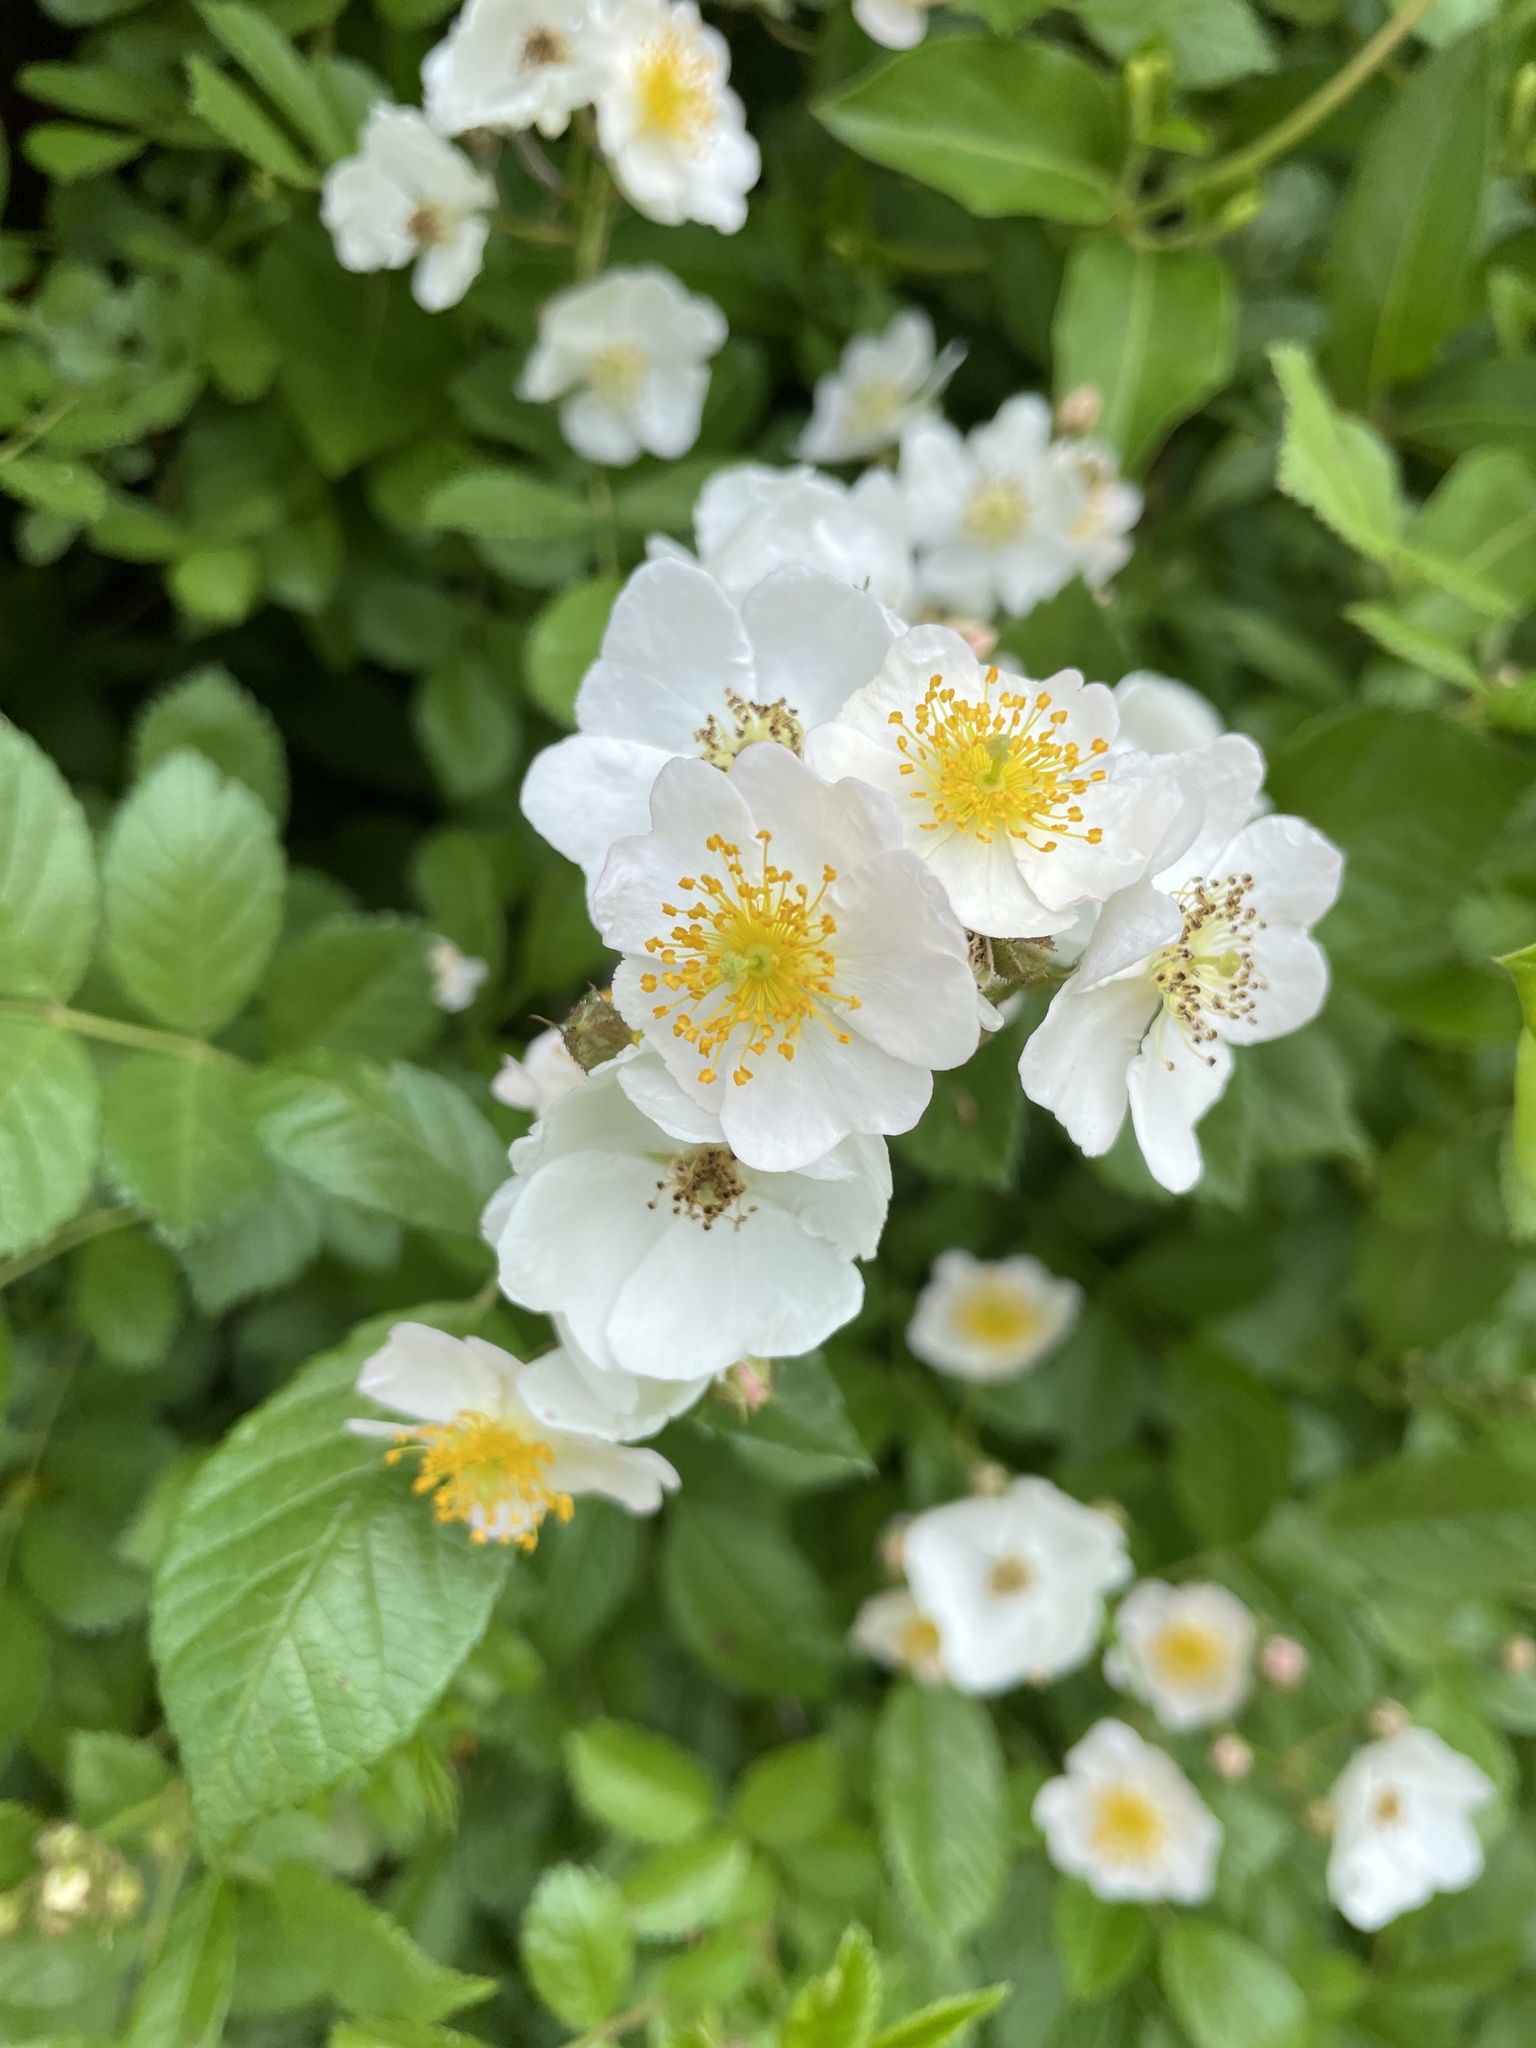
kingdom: Plantae
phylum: Tracheophyta
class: Magnoliopsida
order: Rosales
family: Rosaceae
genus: Rosa
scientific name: Rosa multiflora
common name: Multiflora rose
